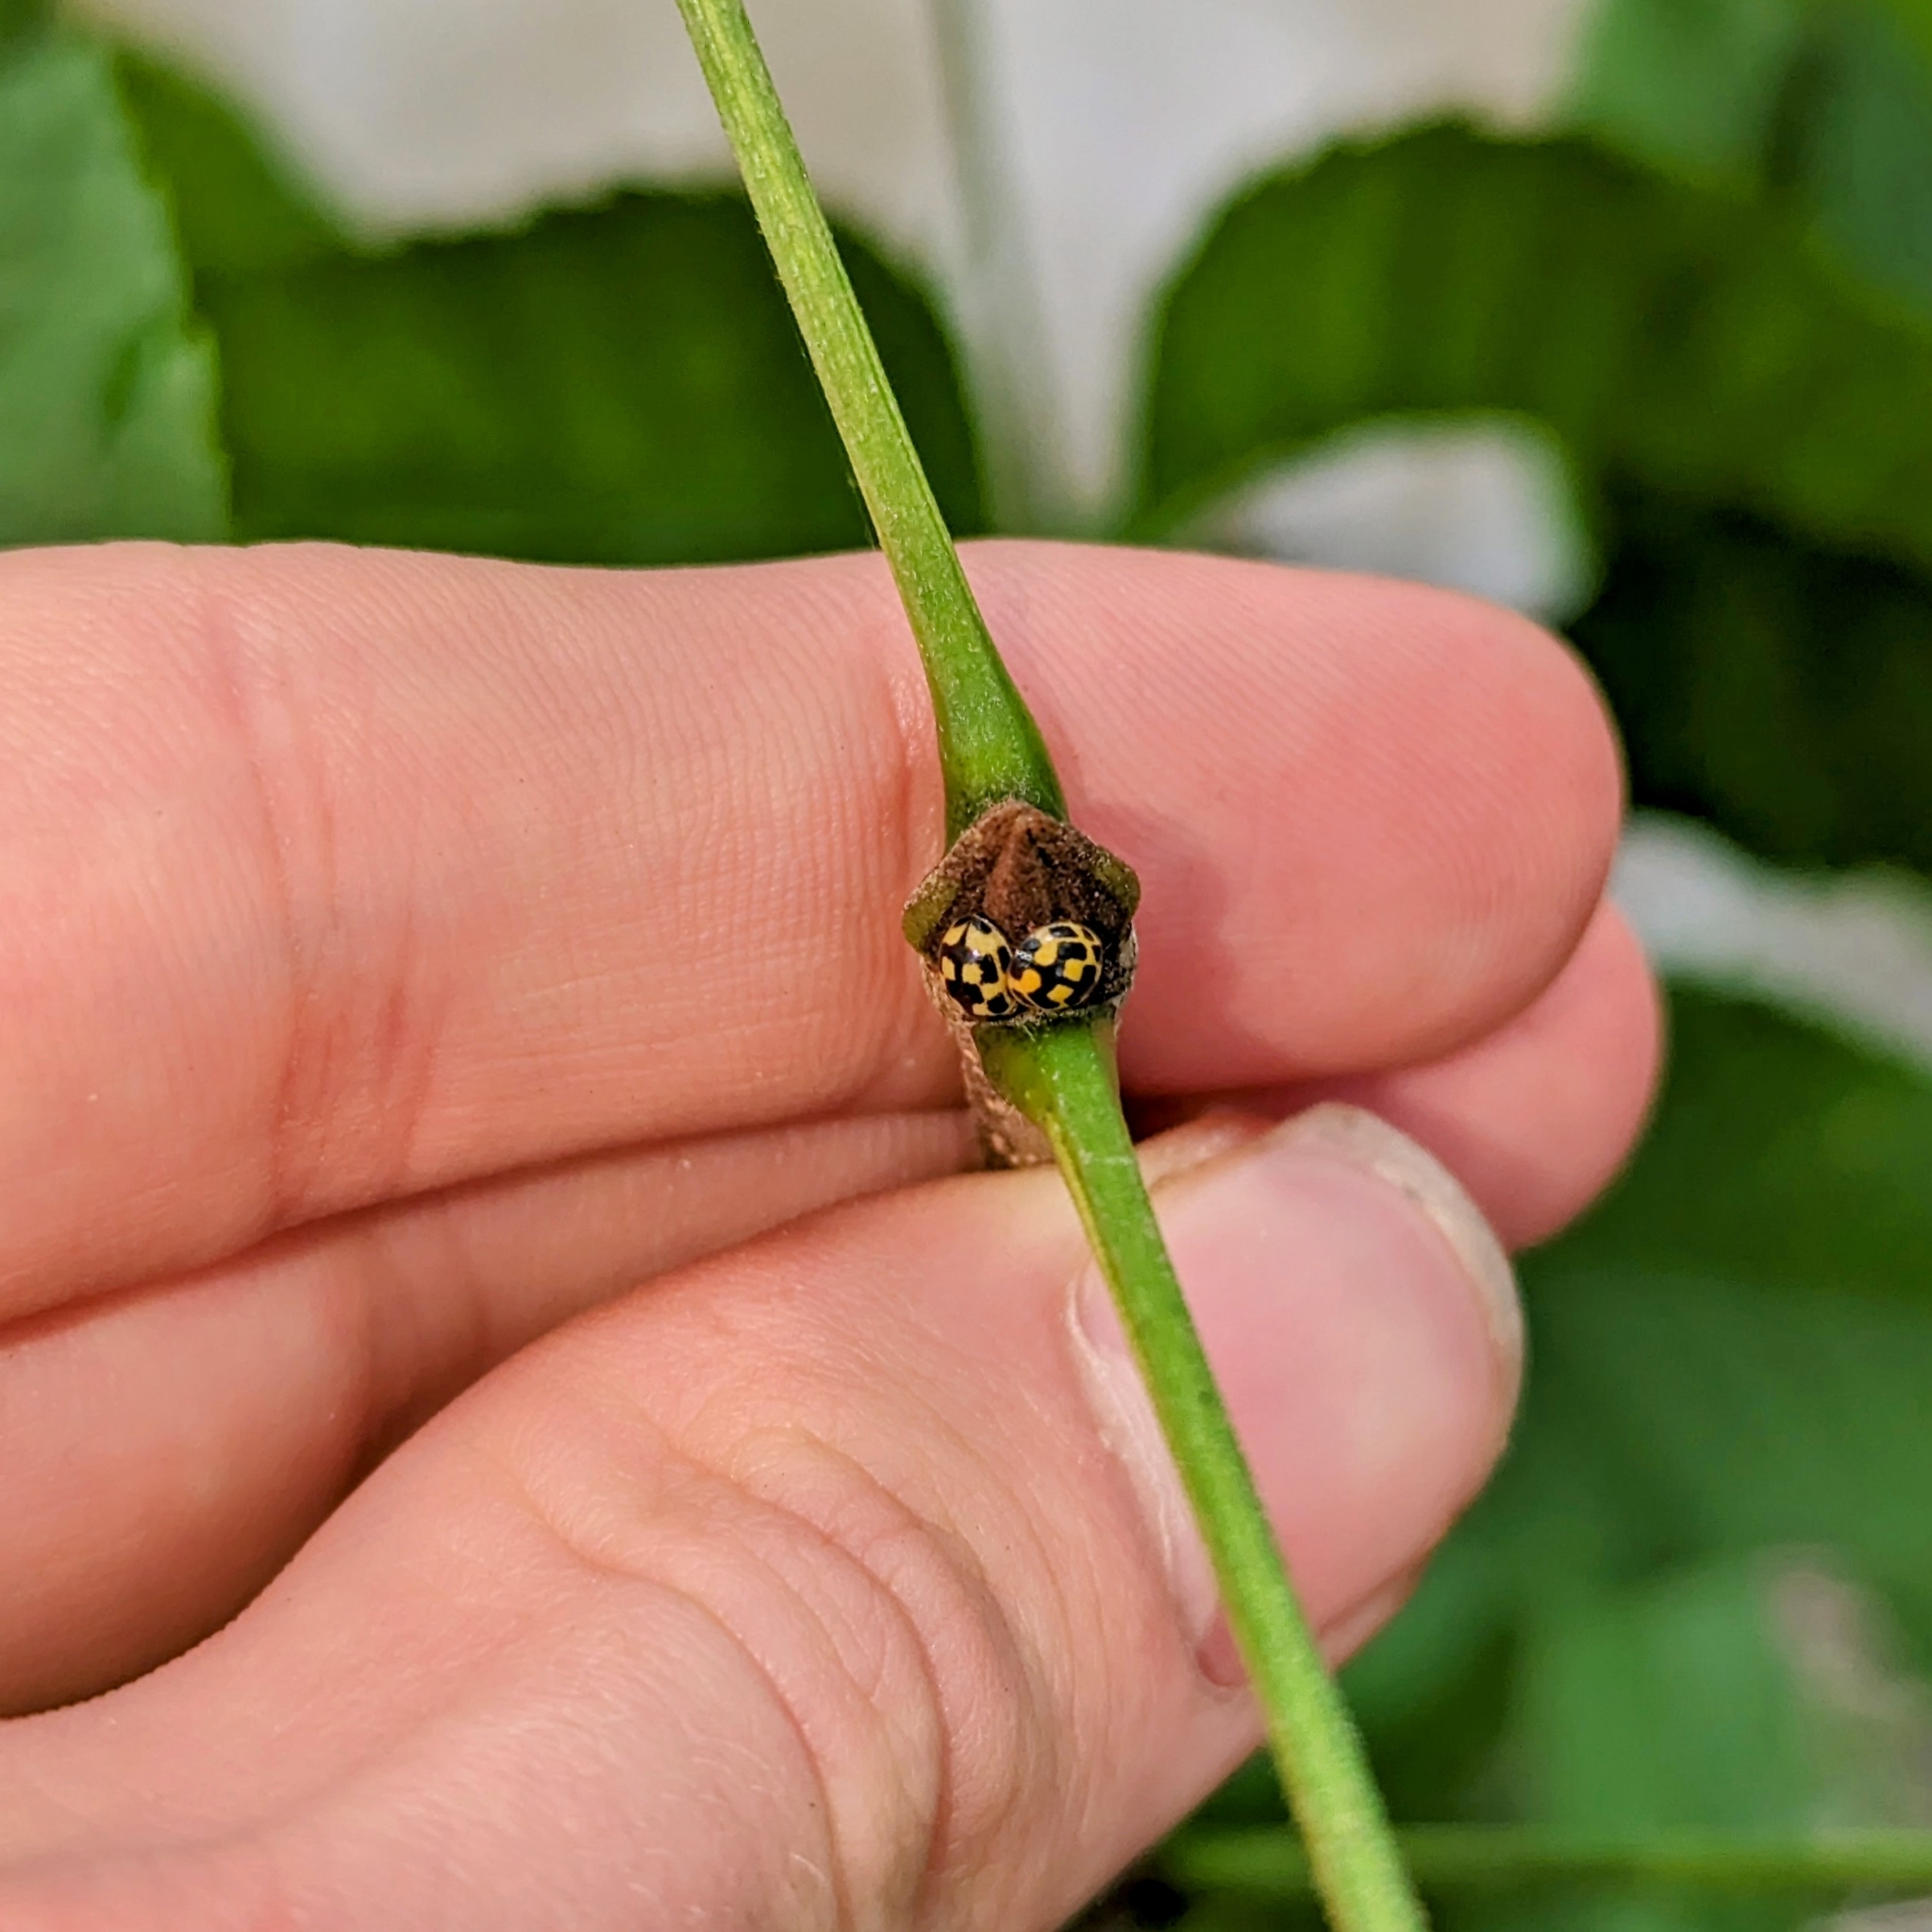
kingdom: Animalia
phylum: Arthropoda
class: Insecta
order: Coleoptera
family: Coccinellidae
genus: Propylaea
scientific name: Propylaea quatuordecimpunctata
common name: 14-spotted ladybird beetle
